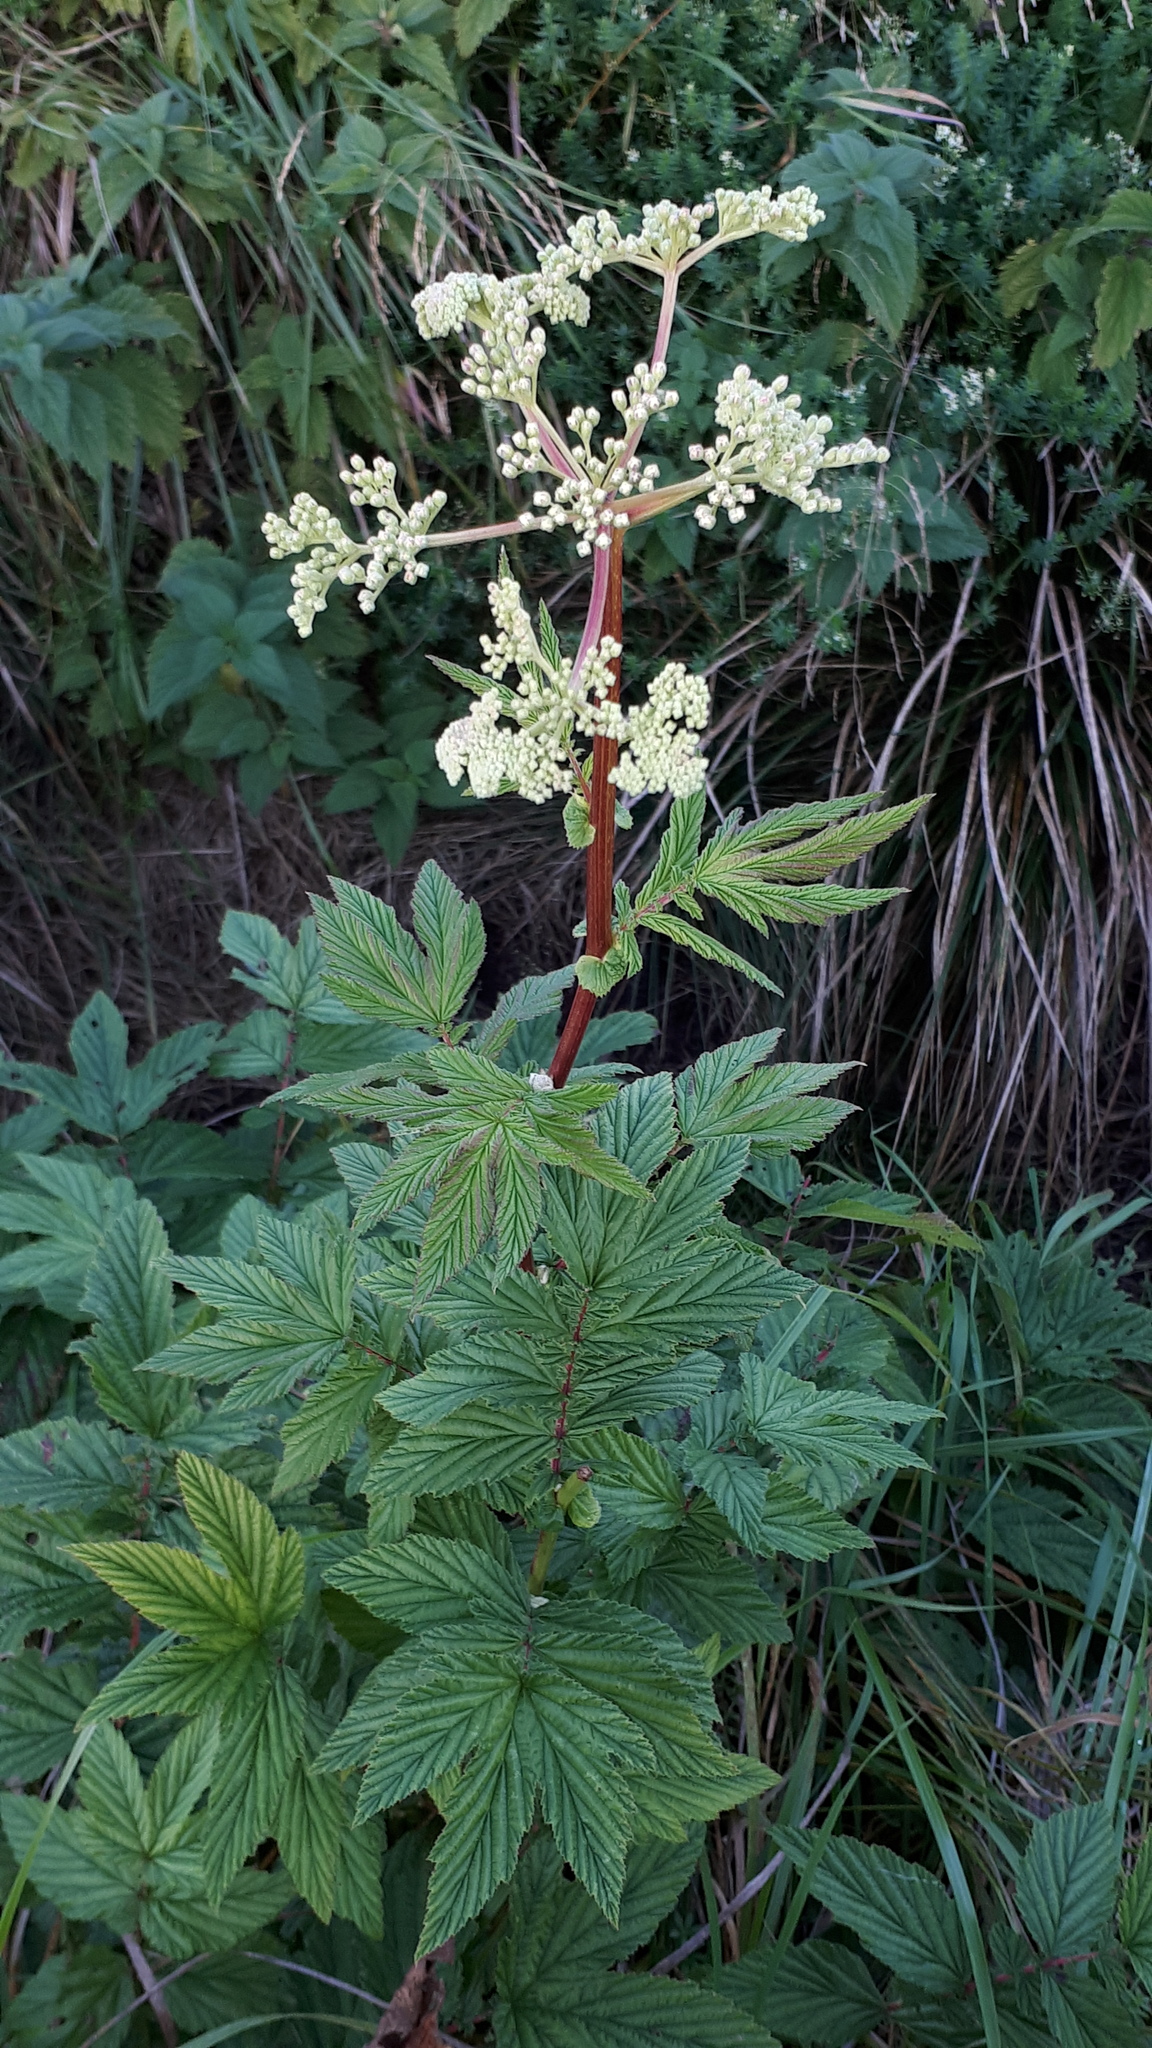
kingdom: Plantae
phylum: Tracheophyta
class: Magnoliopsida
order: Rosales
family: Rosaceae
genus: Filipendula
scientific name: Filipendula ulmaria
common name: Meadowsweet
